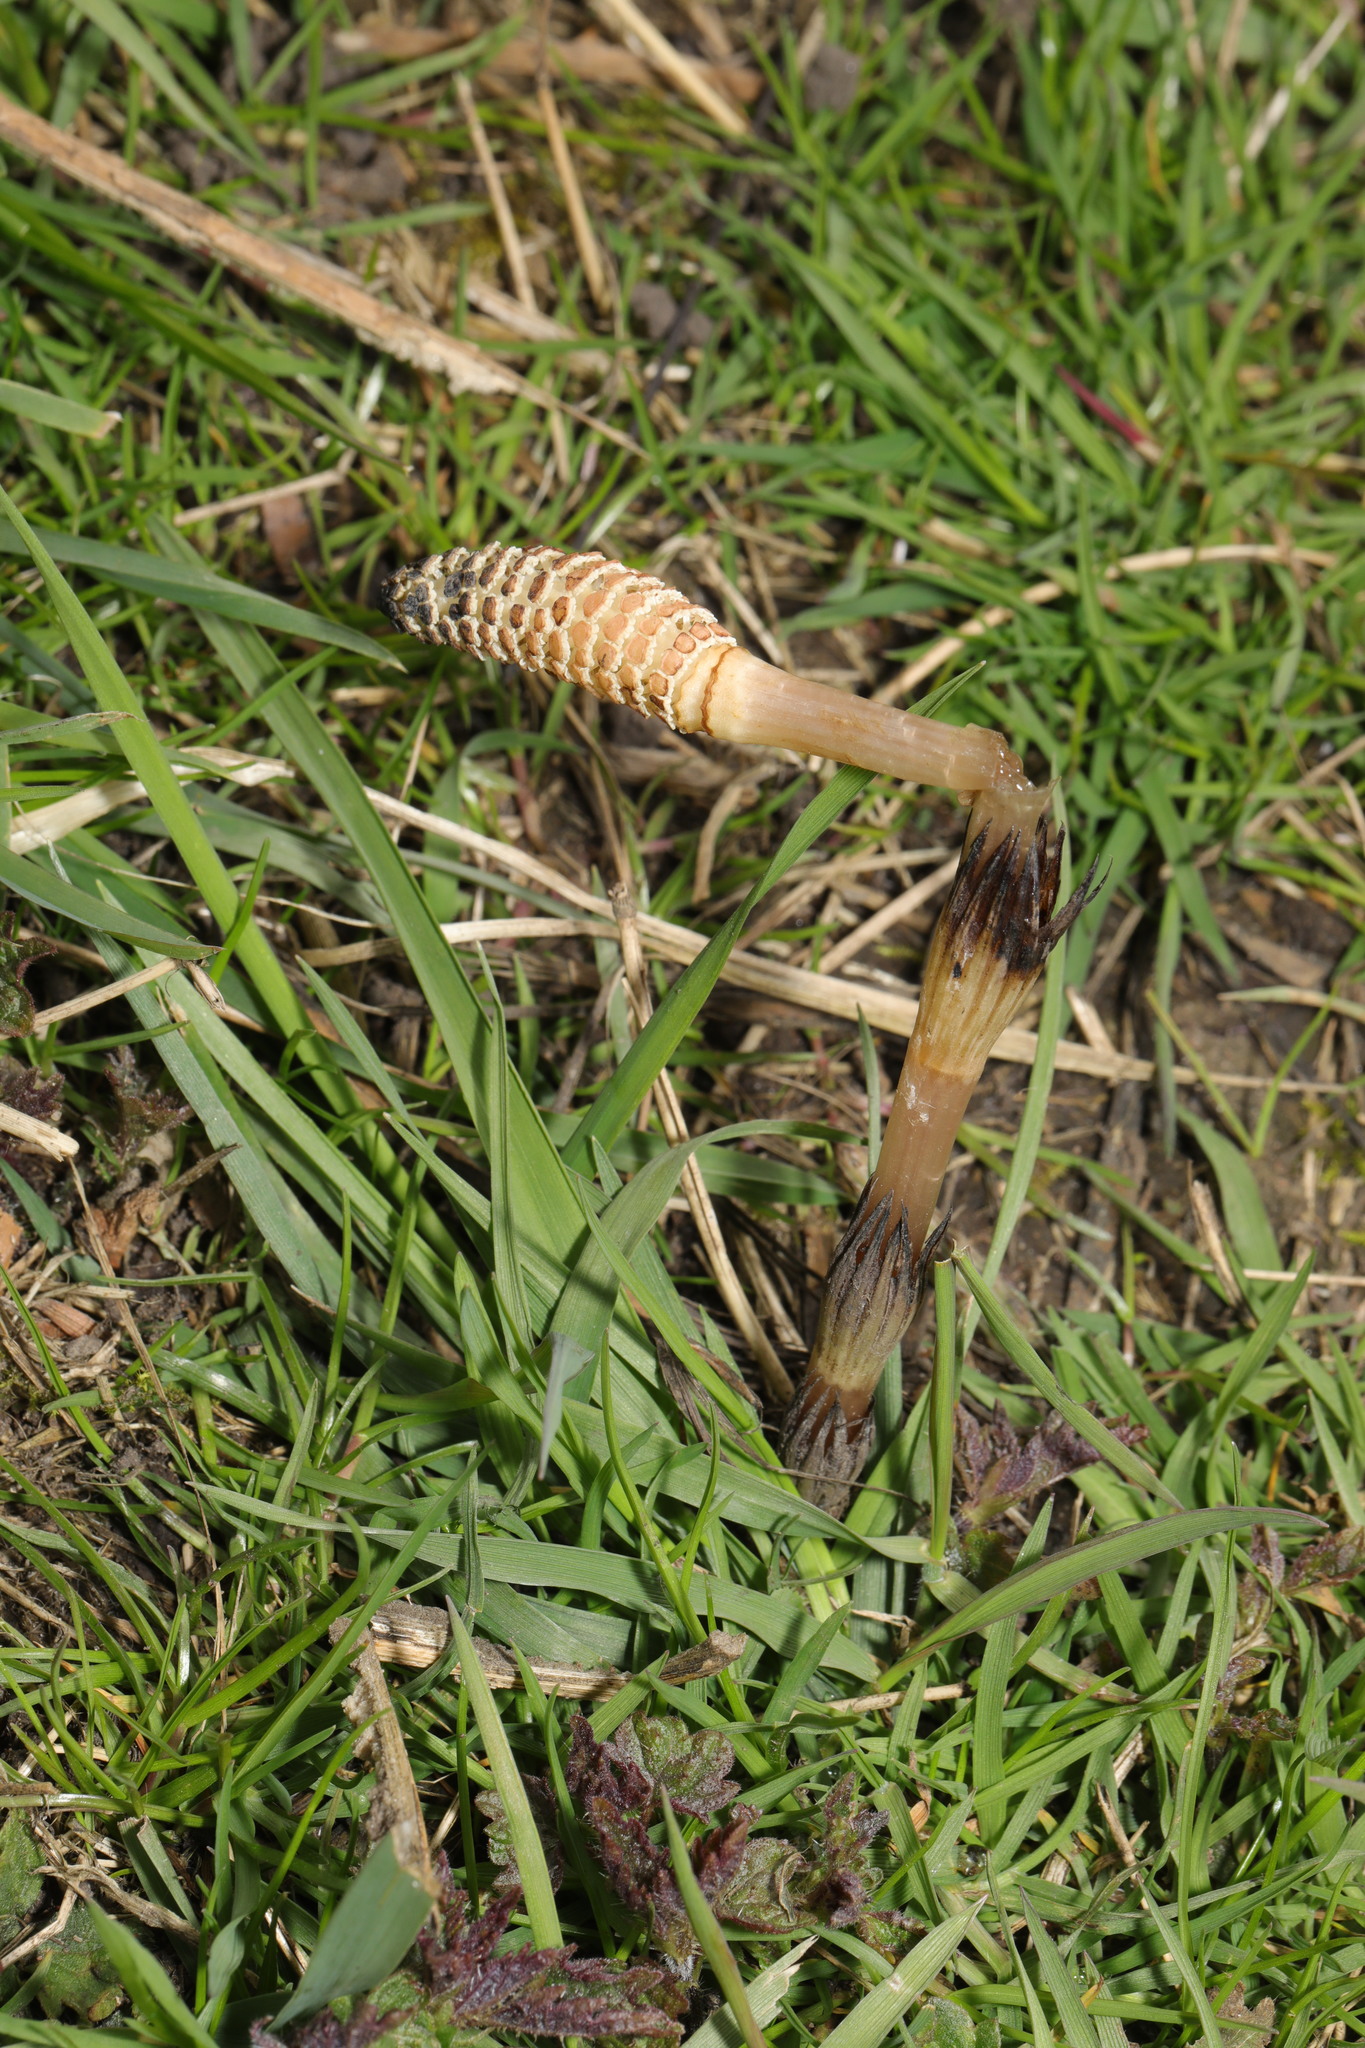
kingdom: Plantae
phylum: Tracheophyta
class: Polypodiopsida
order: Equisetales
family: Equisetaceae
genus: Equisetum
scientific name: Equisetum arvense
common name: Field horsetail
